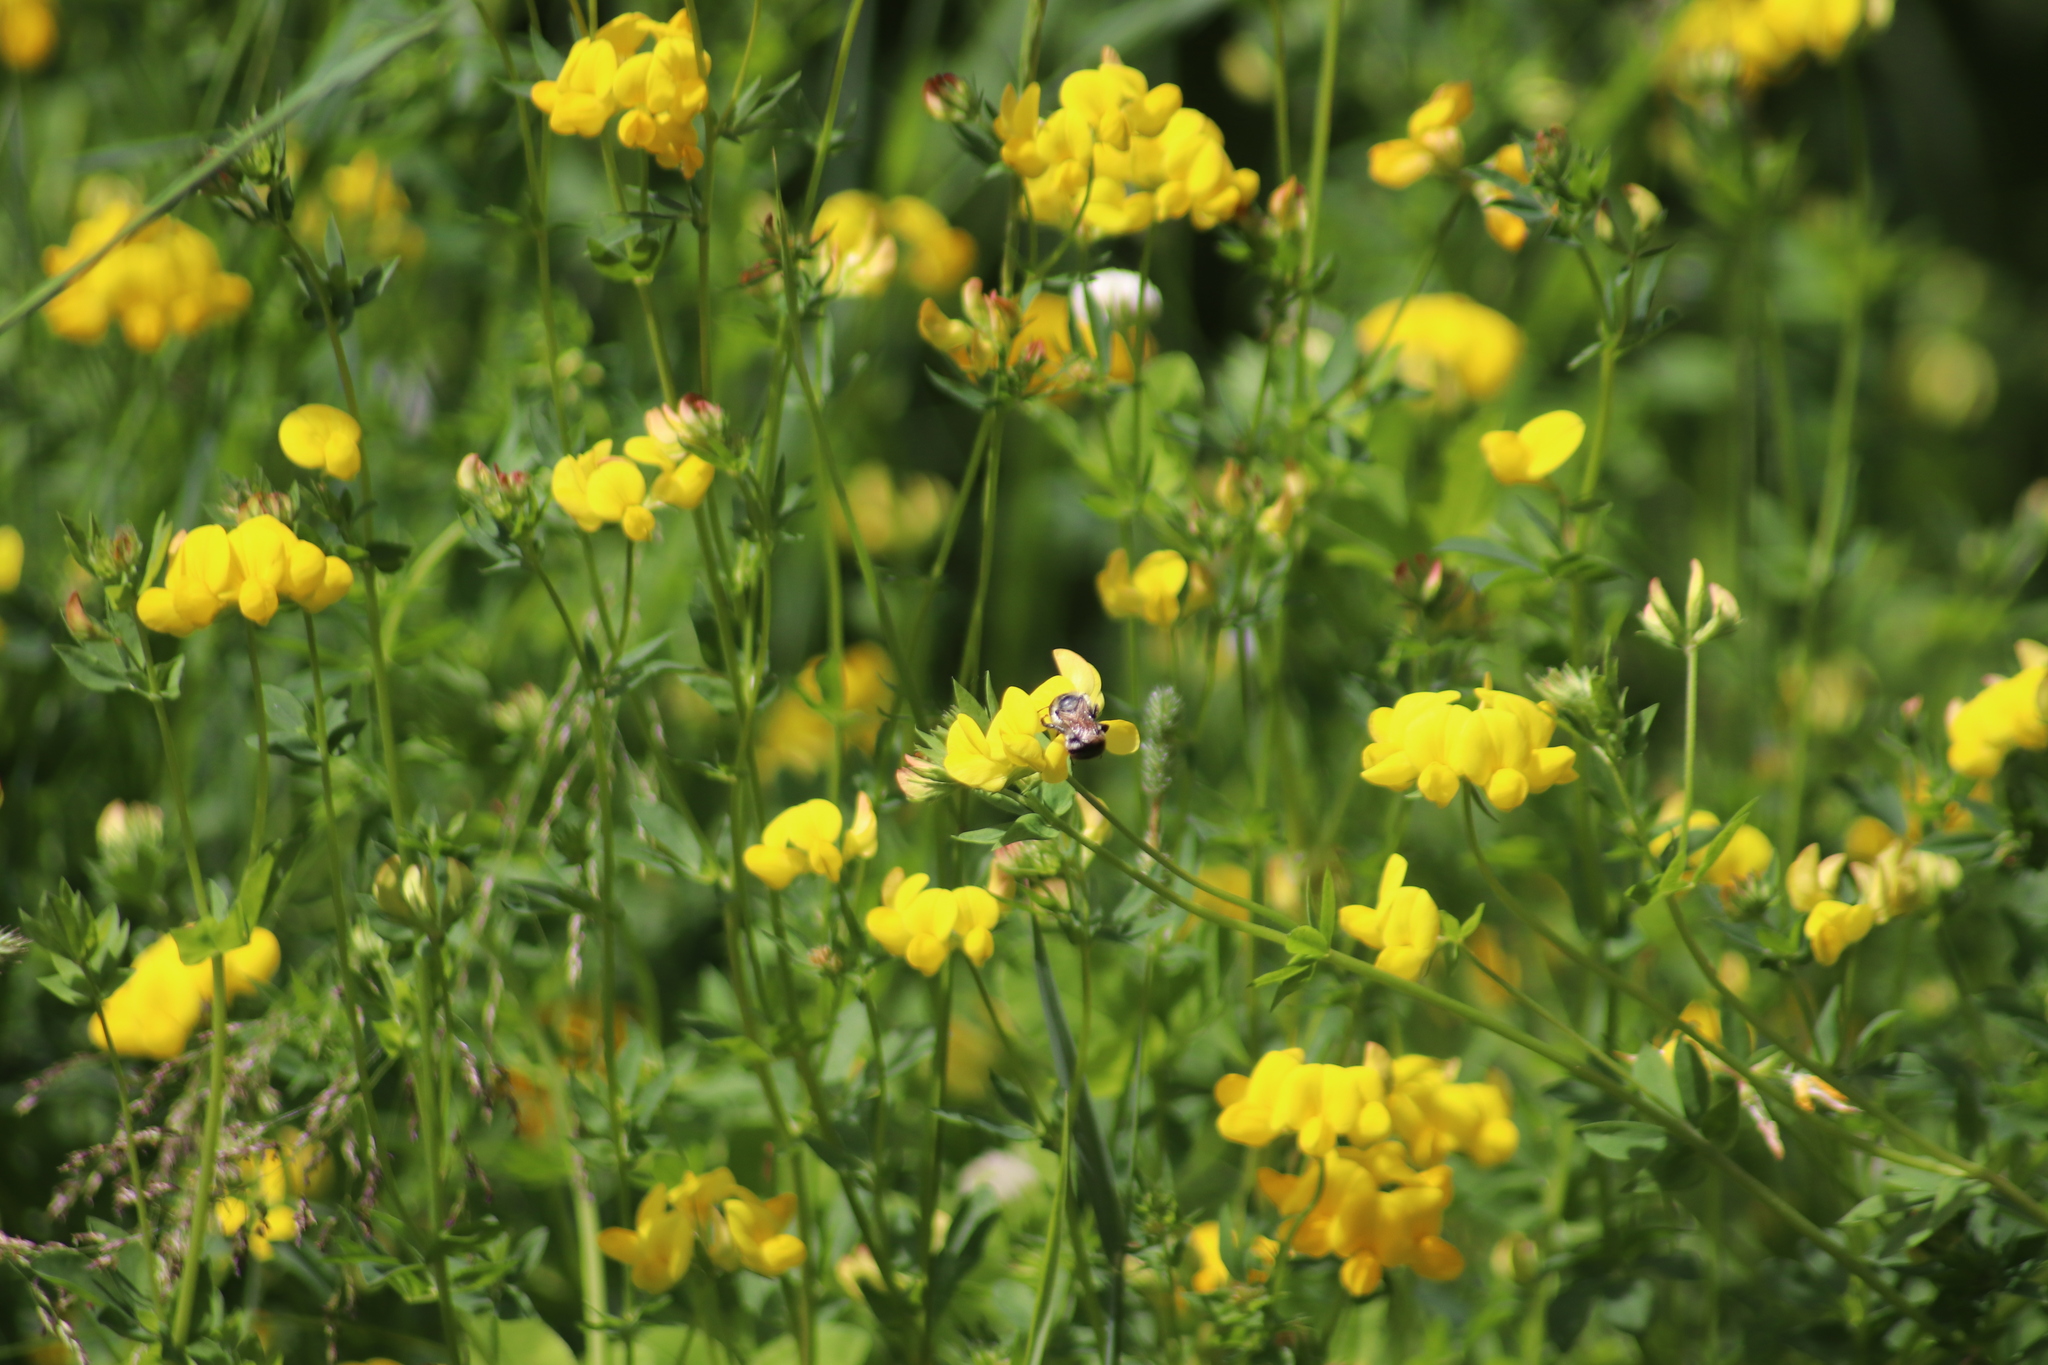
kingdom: Plantae
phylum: Tracheophyta
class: Magnoliopsida
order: Fabales
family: Fabaceae
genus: Lotus
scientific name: Lotus corniculatus
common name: Common bird's-foot-trefoil
